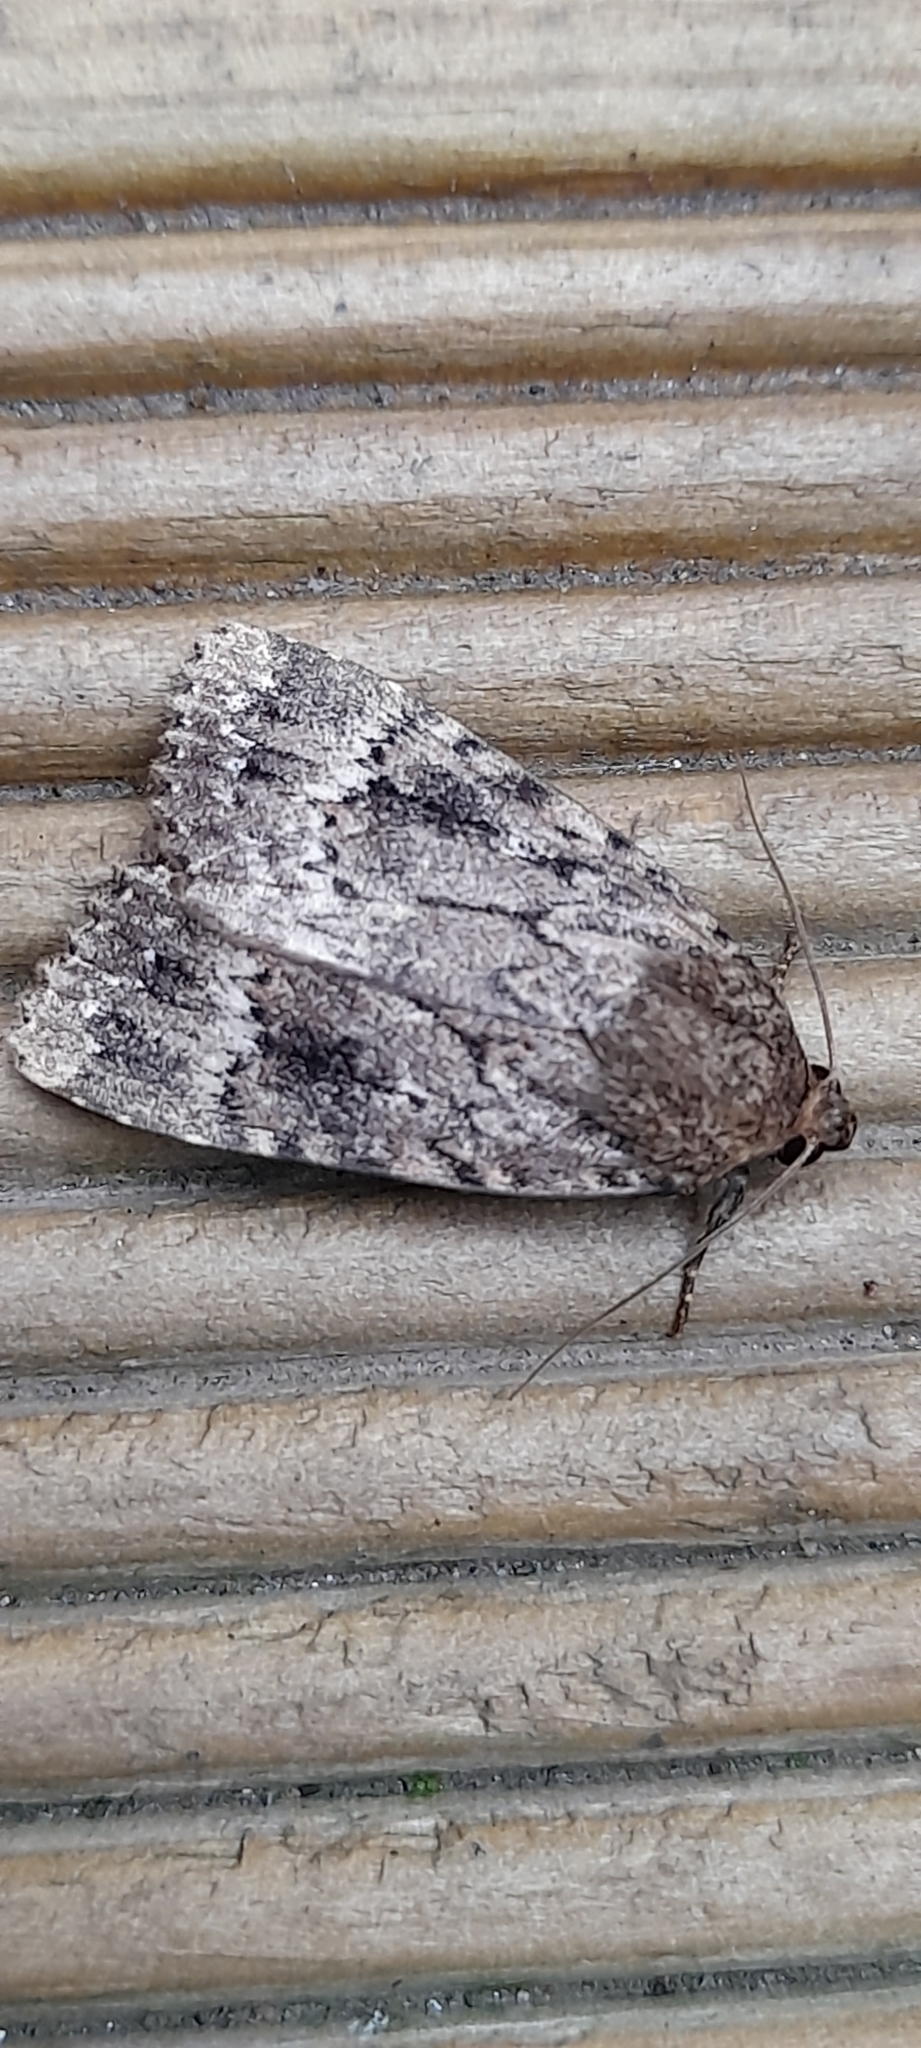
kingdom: Animalia
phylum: Arthropoda
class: Insecta
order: Lepidoptera
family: Noctuidae
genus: Amphipyra
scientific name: Amphipyra pyramidea
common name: Copper underwing
